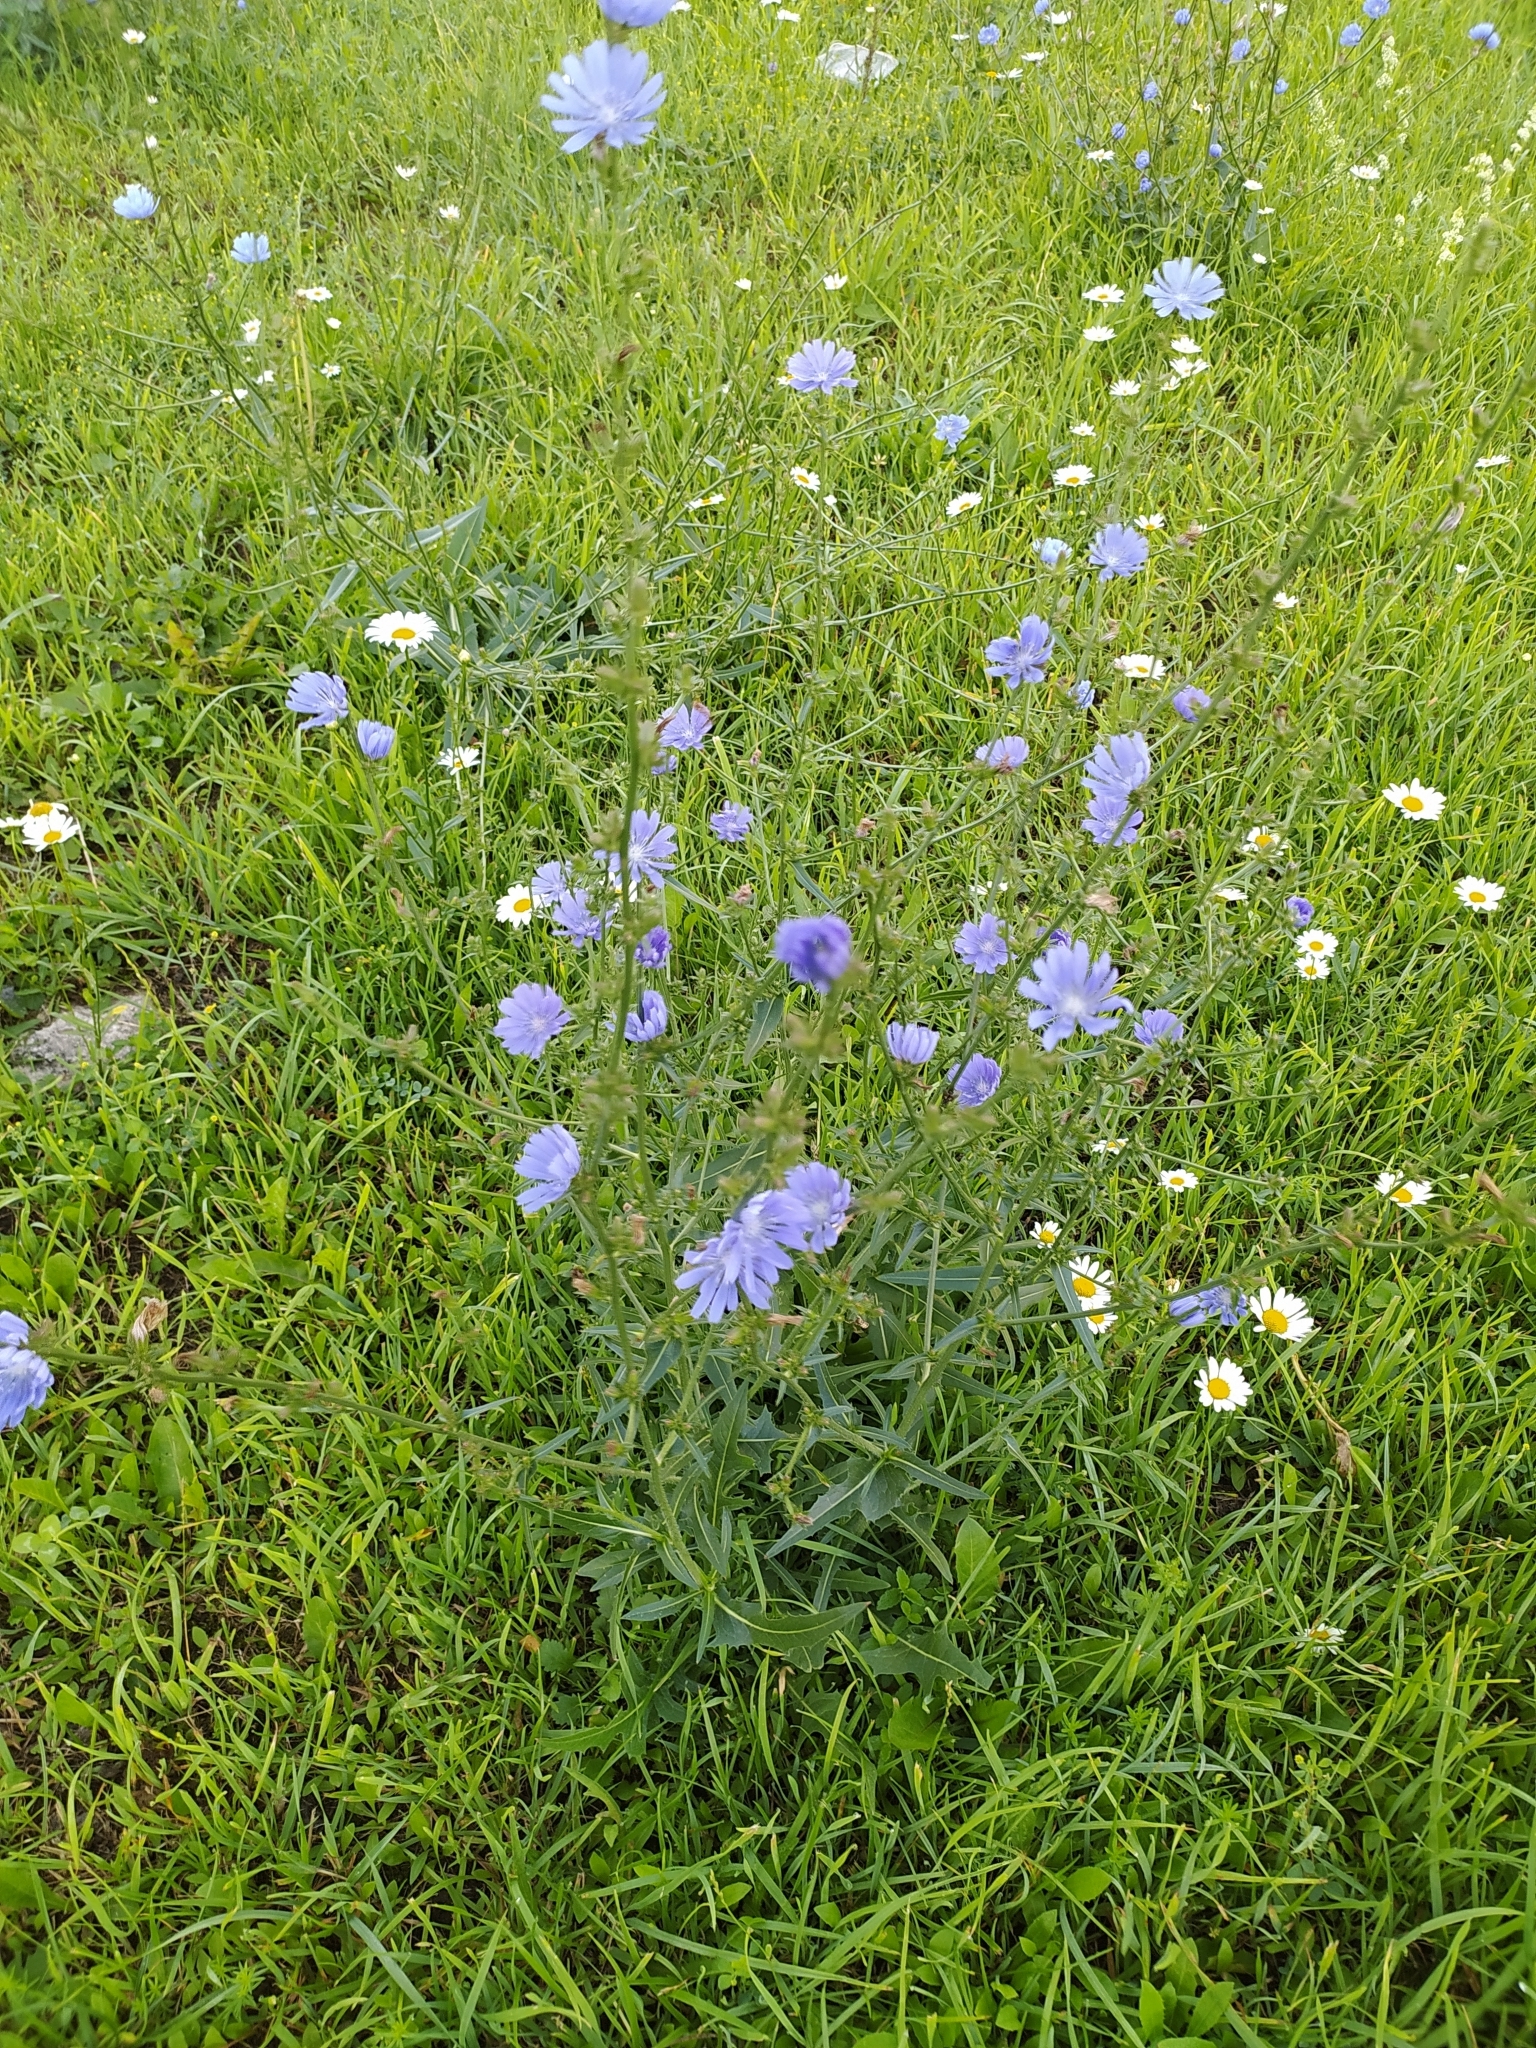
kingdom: Plantae
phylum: Tracheophyta
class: Magnoliopsida
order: Asterales
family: Asteraceae
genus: Cichorium
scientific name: Cichorium intybus
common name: Chicory
